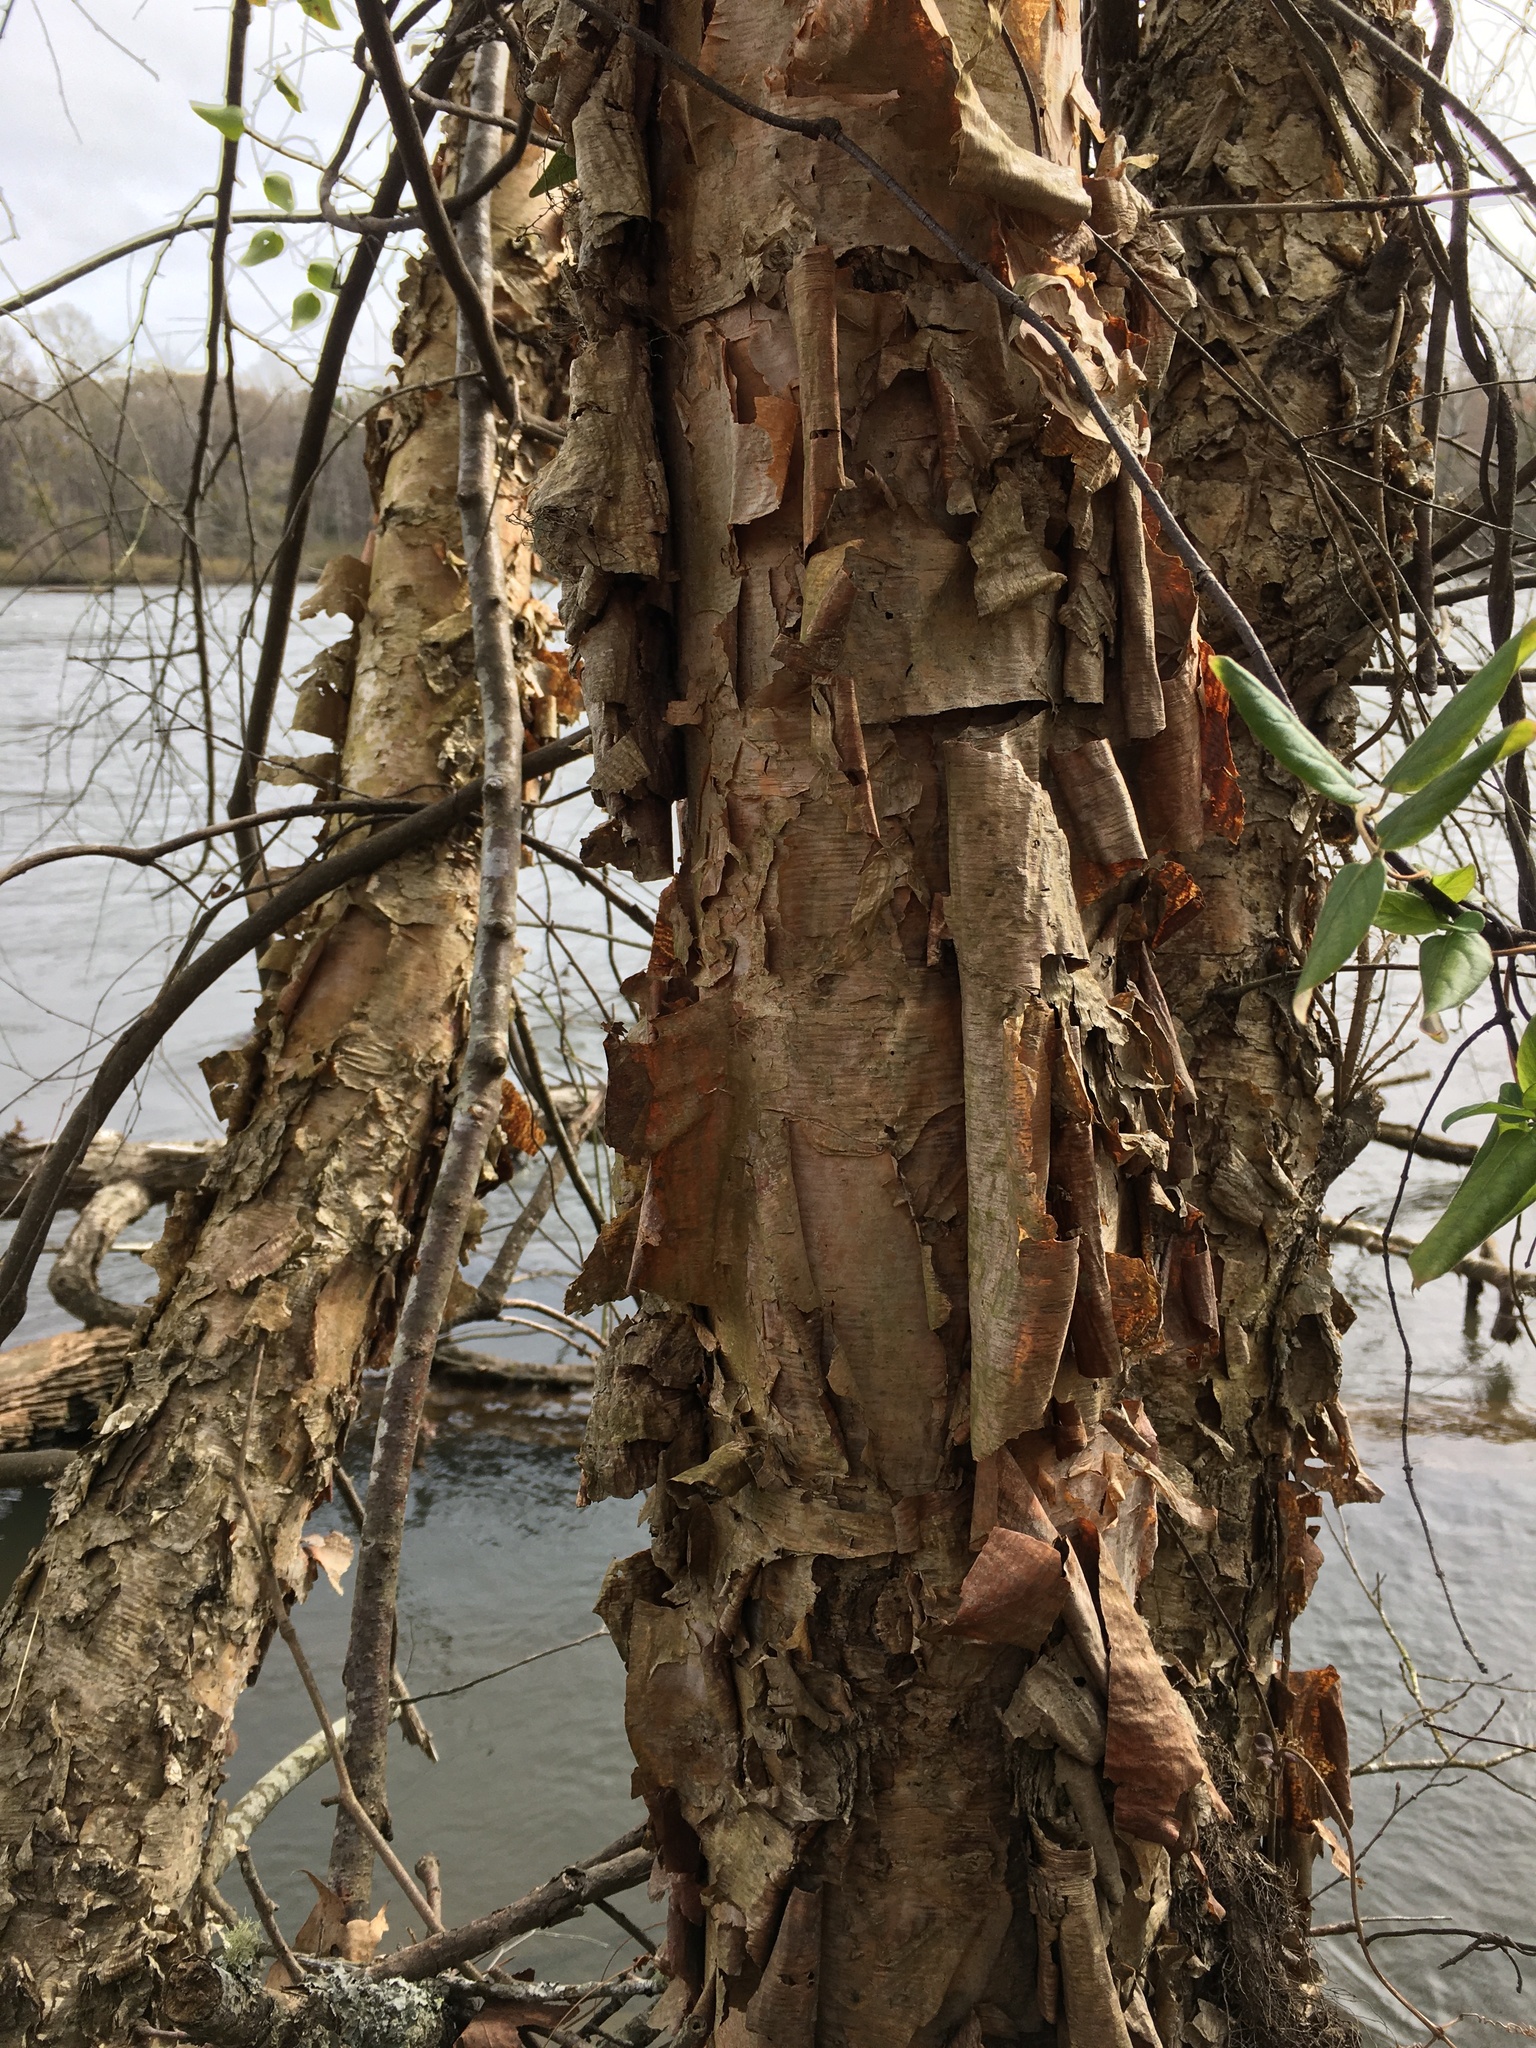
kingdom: Plantae
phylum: Tracheophyta
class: Magnoliopsida
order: Fagales
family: Betulaceae
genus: Betula
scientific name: Betula nigra
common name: Black birch
